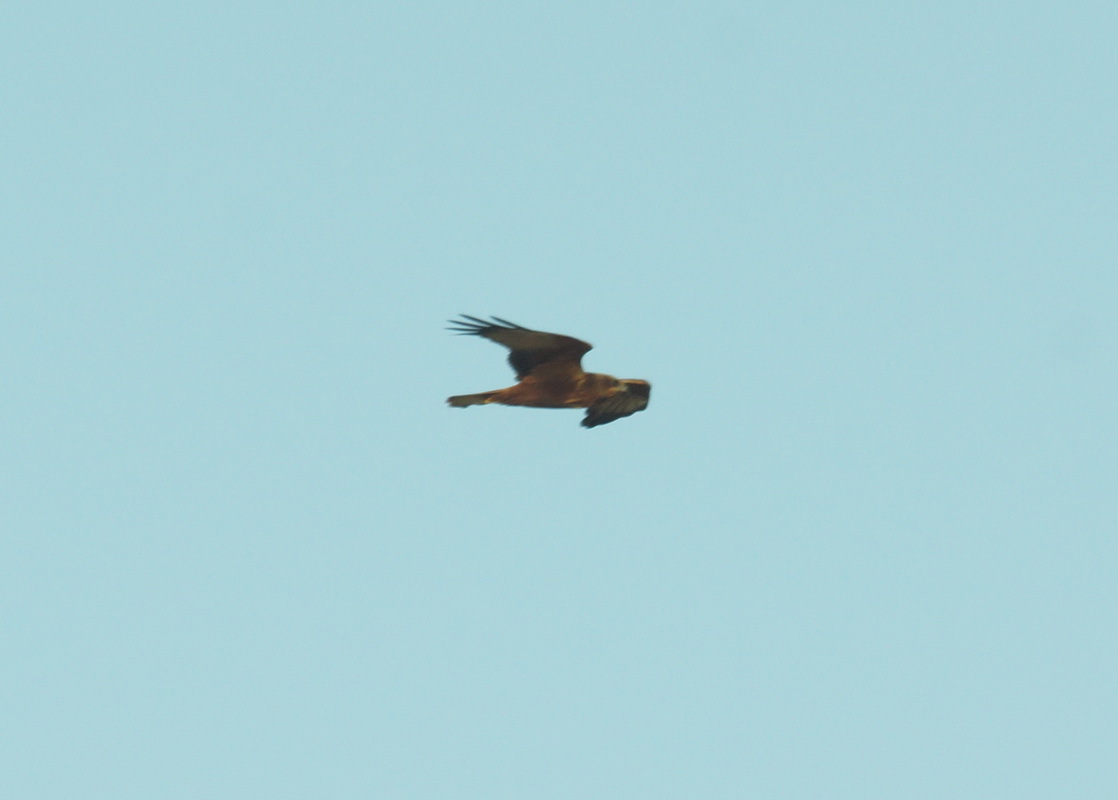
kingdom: Animalia
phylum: Chordata
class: Aves
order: Accipitriformes
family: Accipitridae
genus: Circus
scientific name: Circus aeruginosus
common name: Western marsh harrier
